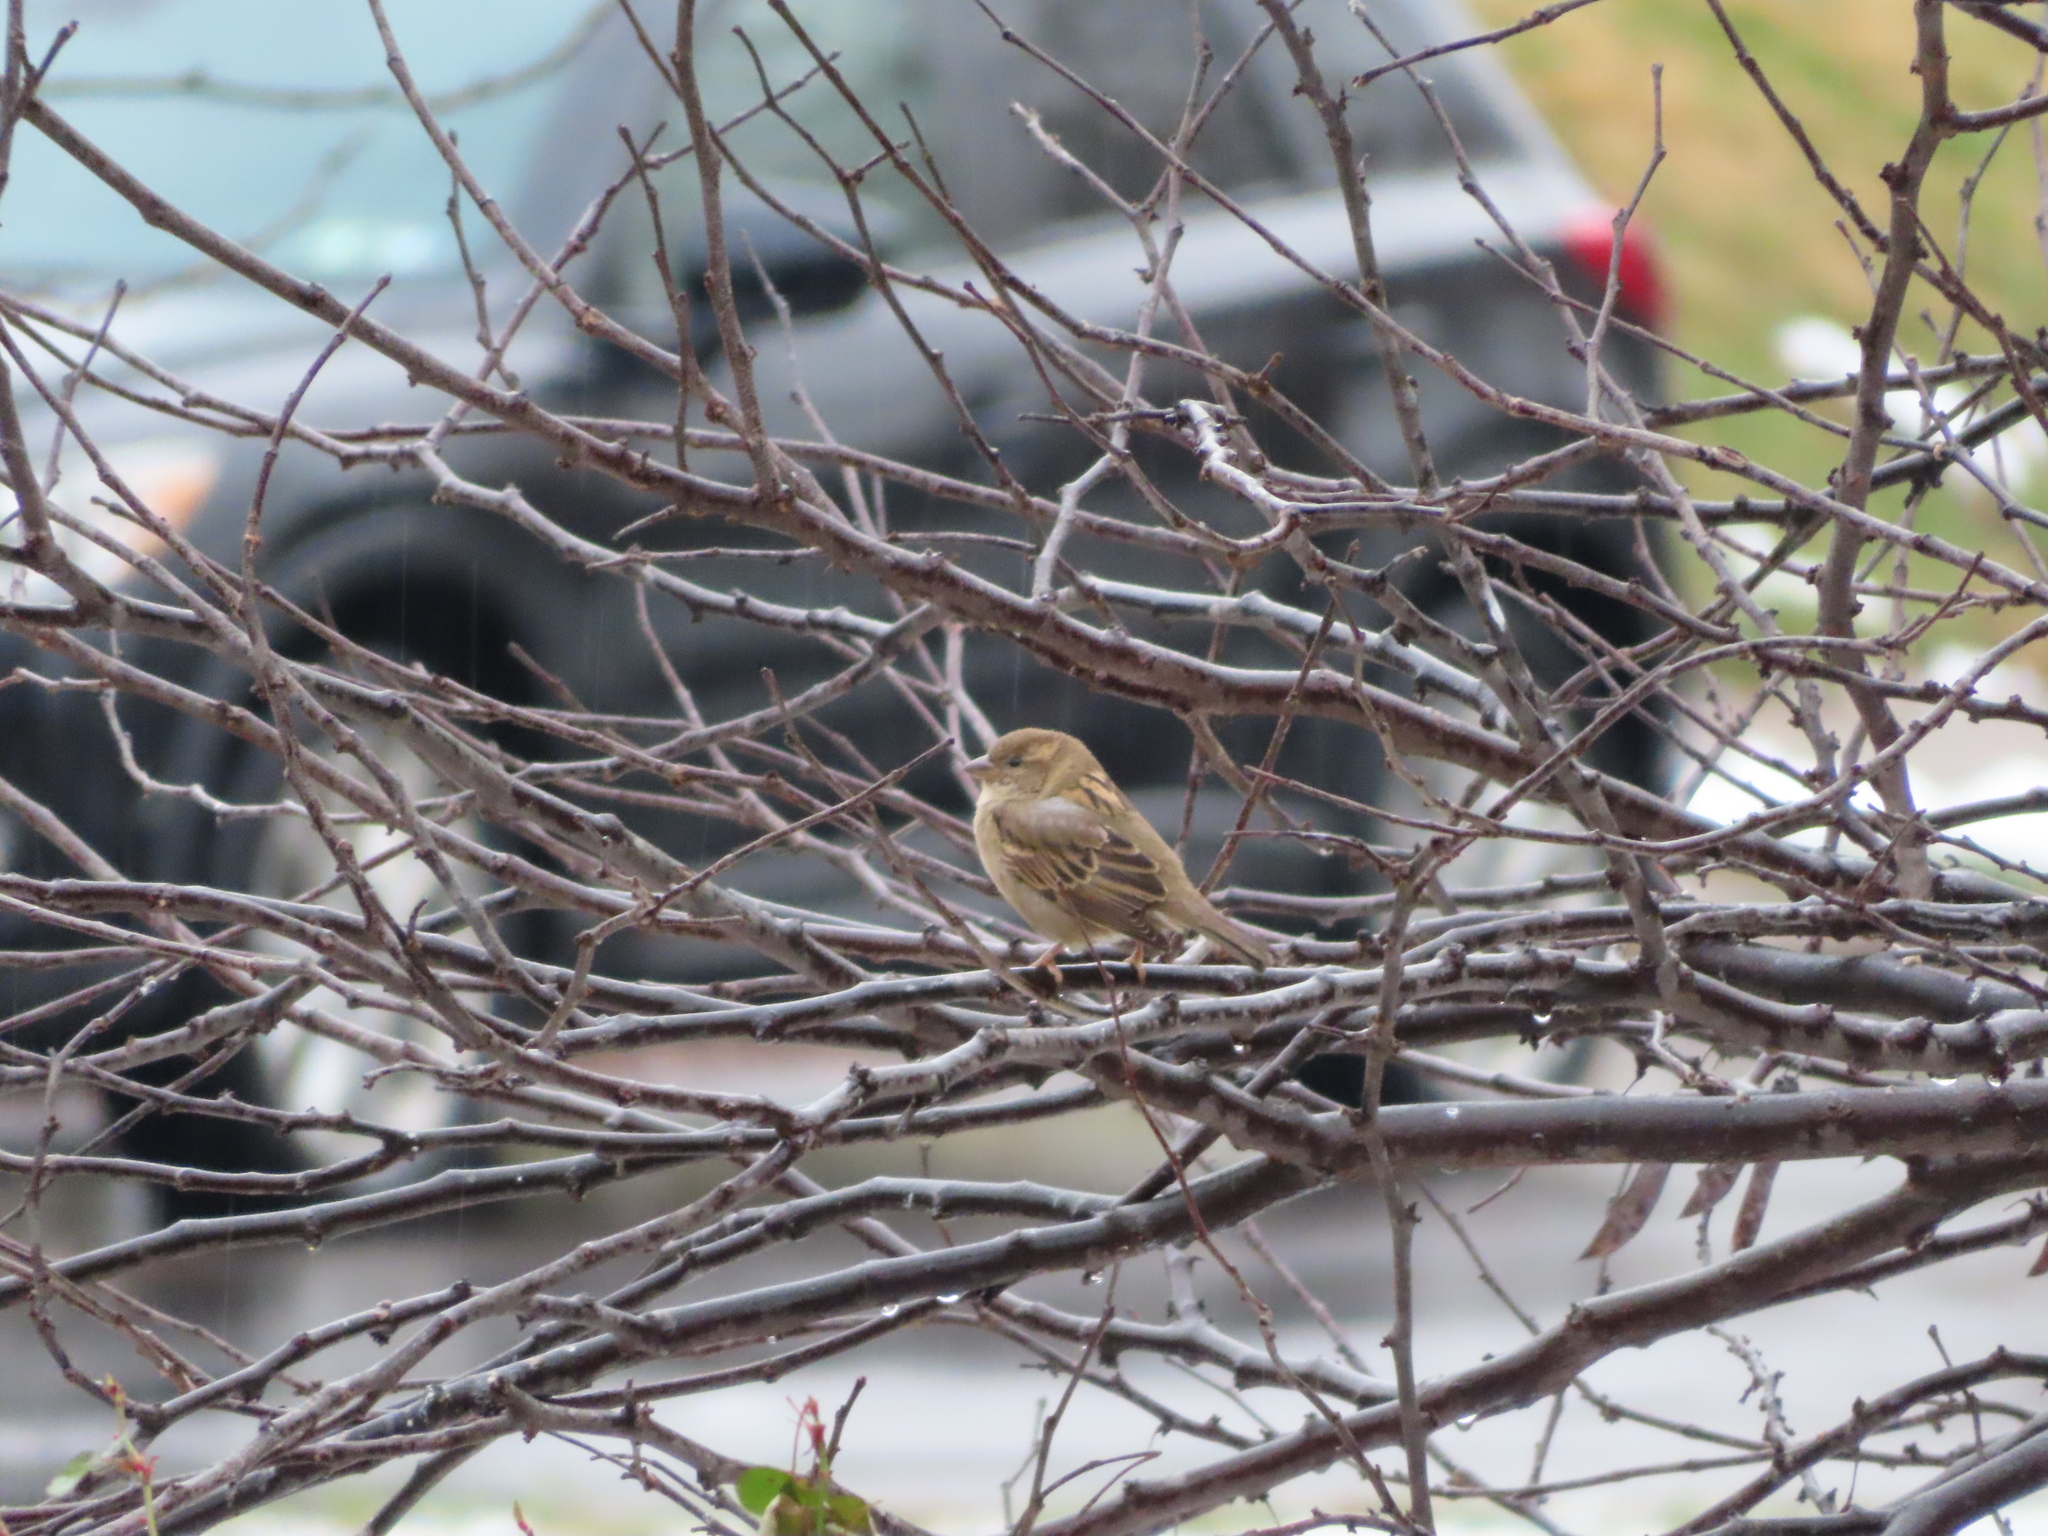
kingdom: Animalia
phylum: Chordata
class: Aves
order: Passeriformes
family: Passeridae
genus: Passer
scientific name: Passer domesticus
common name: House sparrow
